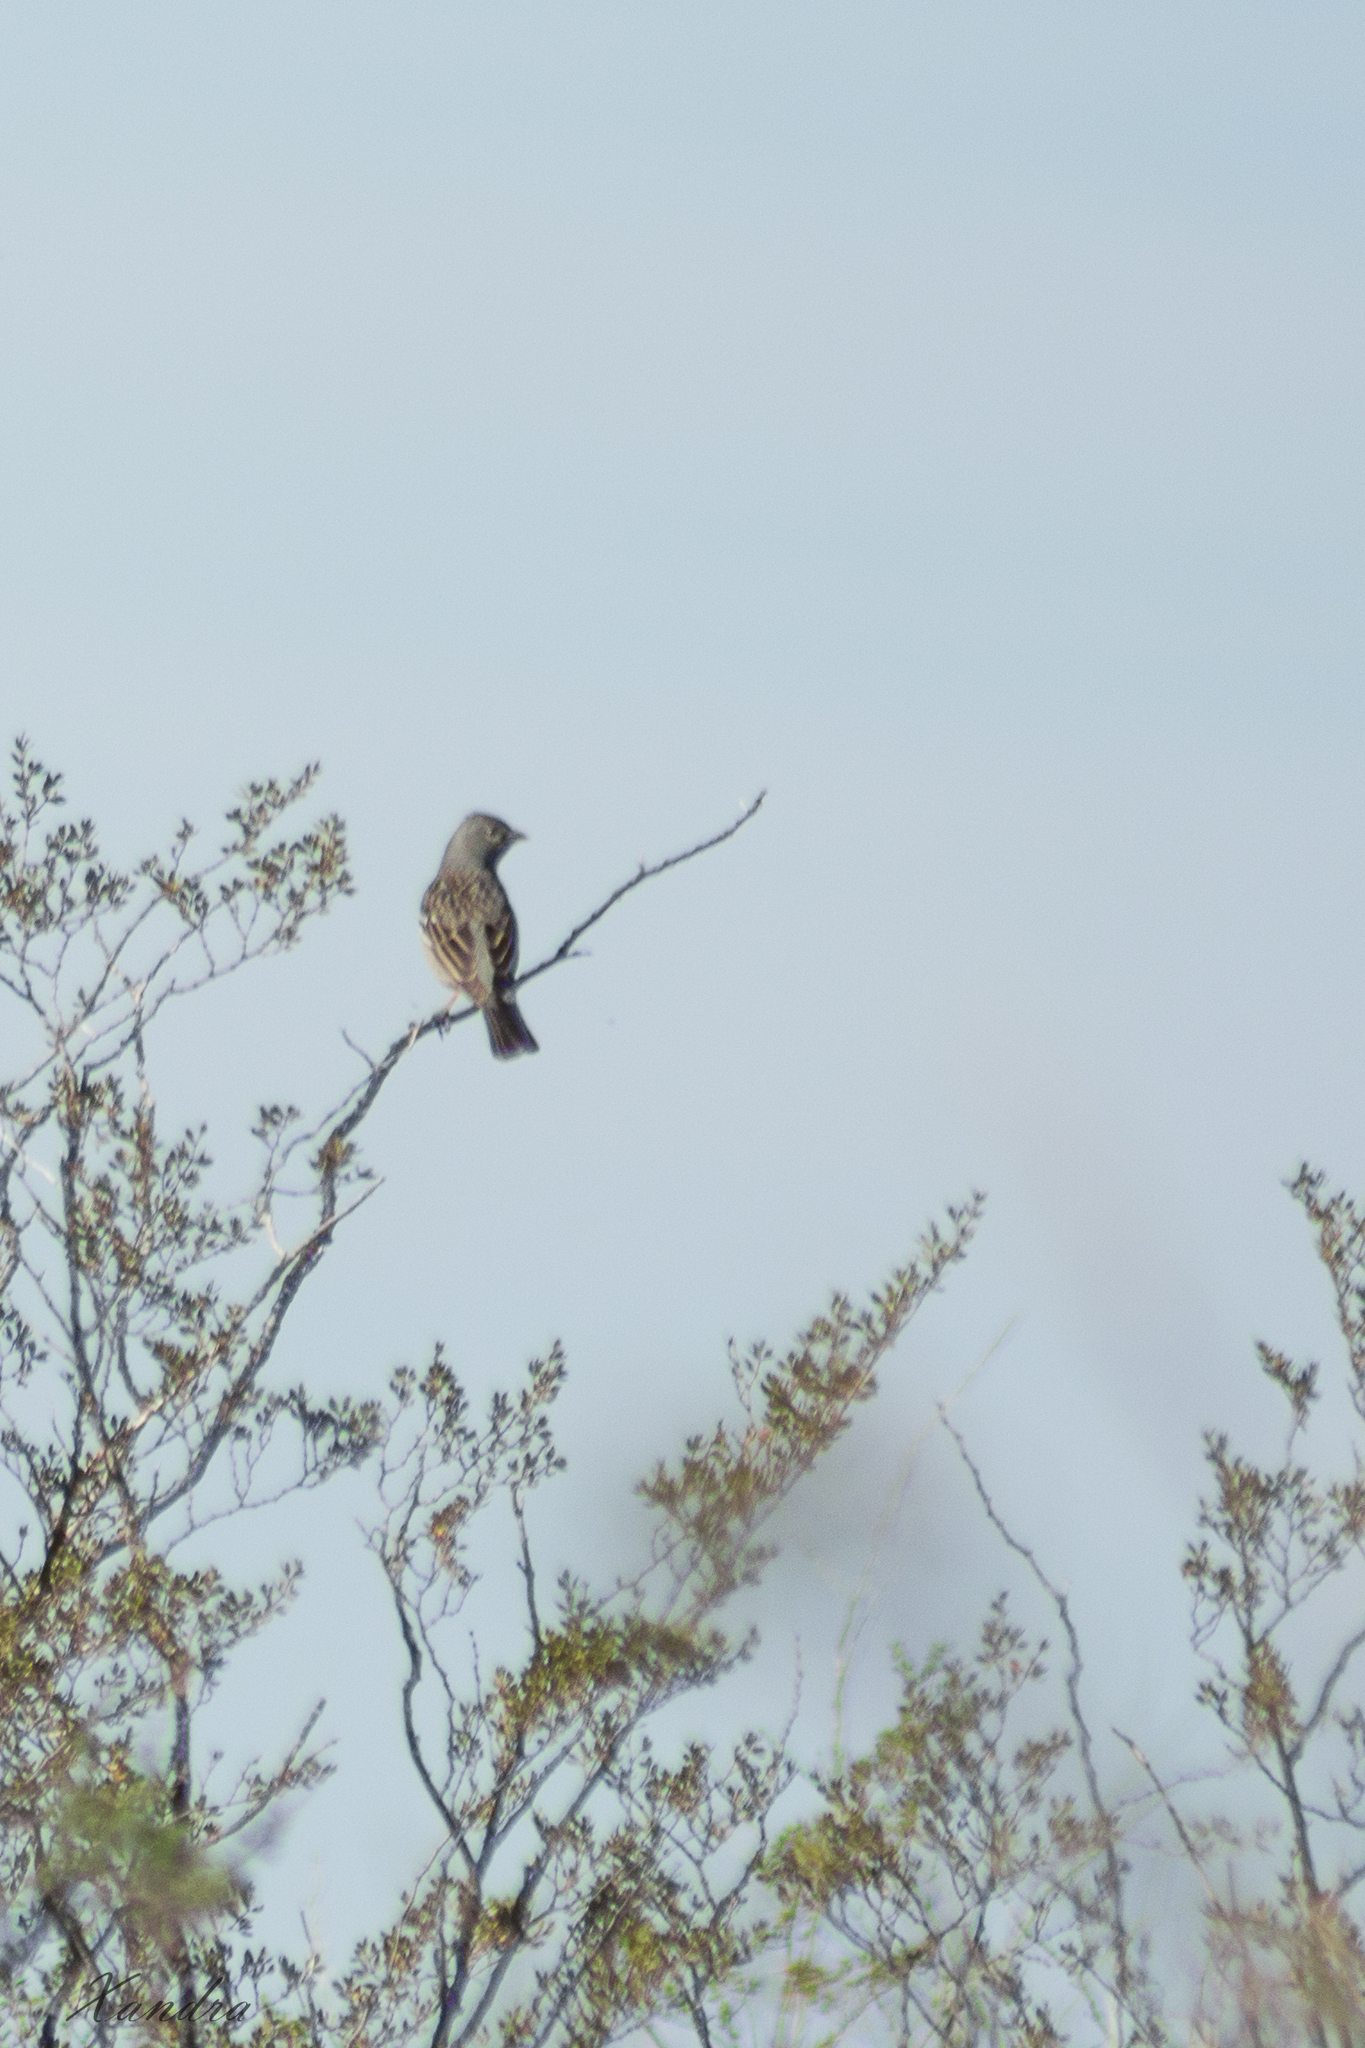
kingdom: Animalia
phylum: Chordata
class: Aves
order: Passeriformes
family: Thraupidae
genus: Rhopospina
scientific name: Rhopospina fruticeti
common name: Mourning sierra finch
